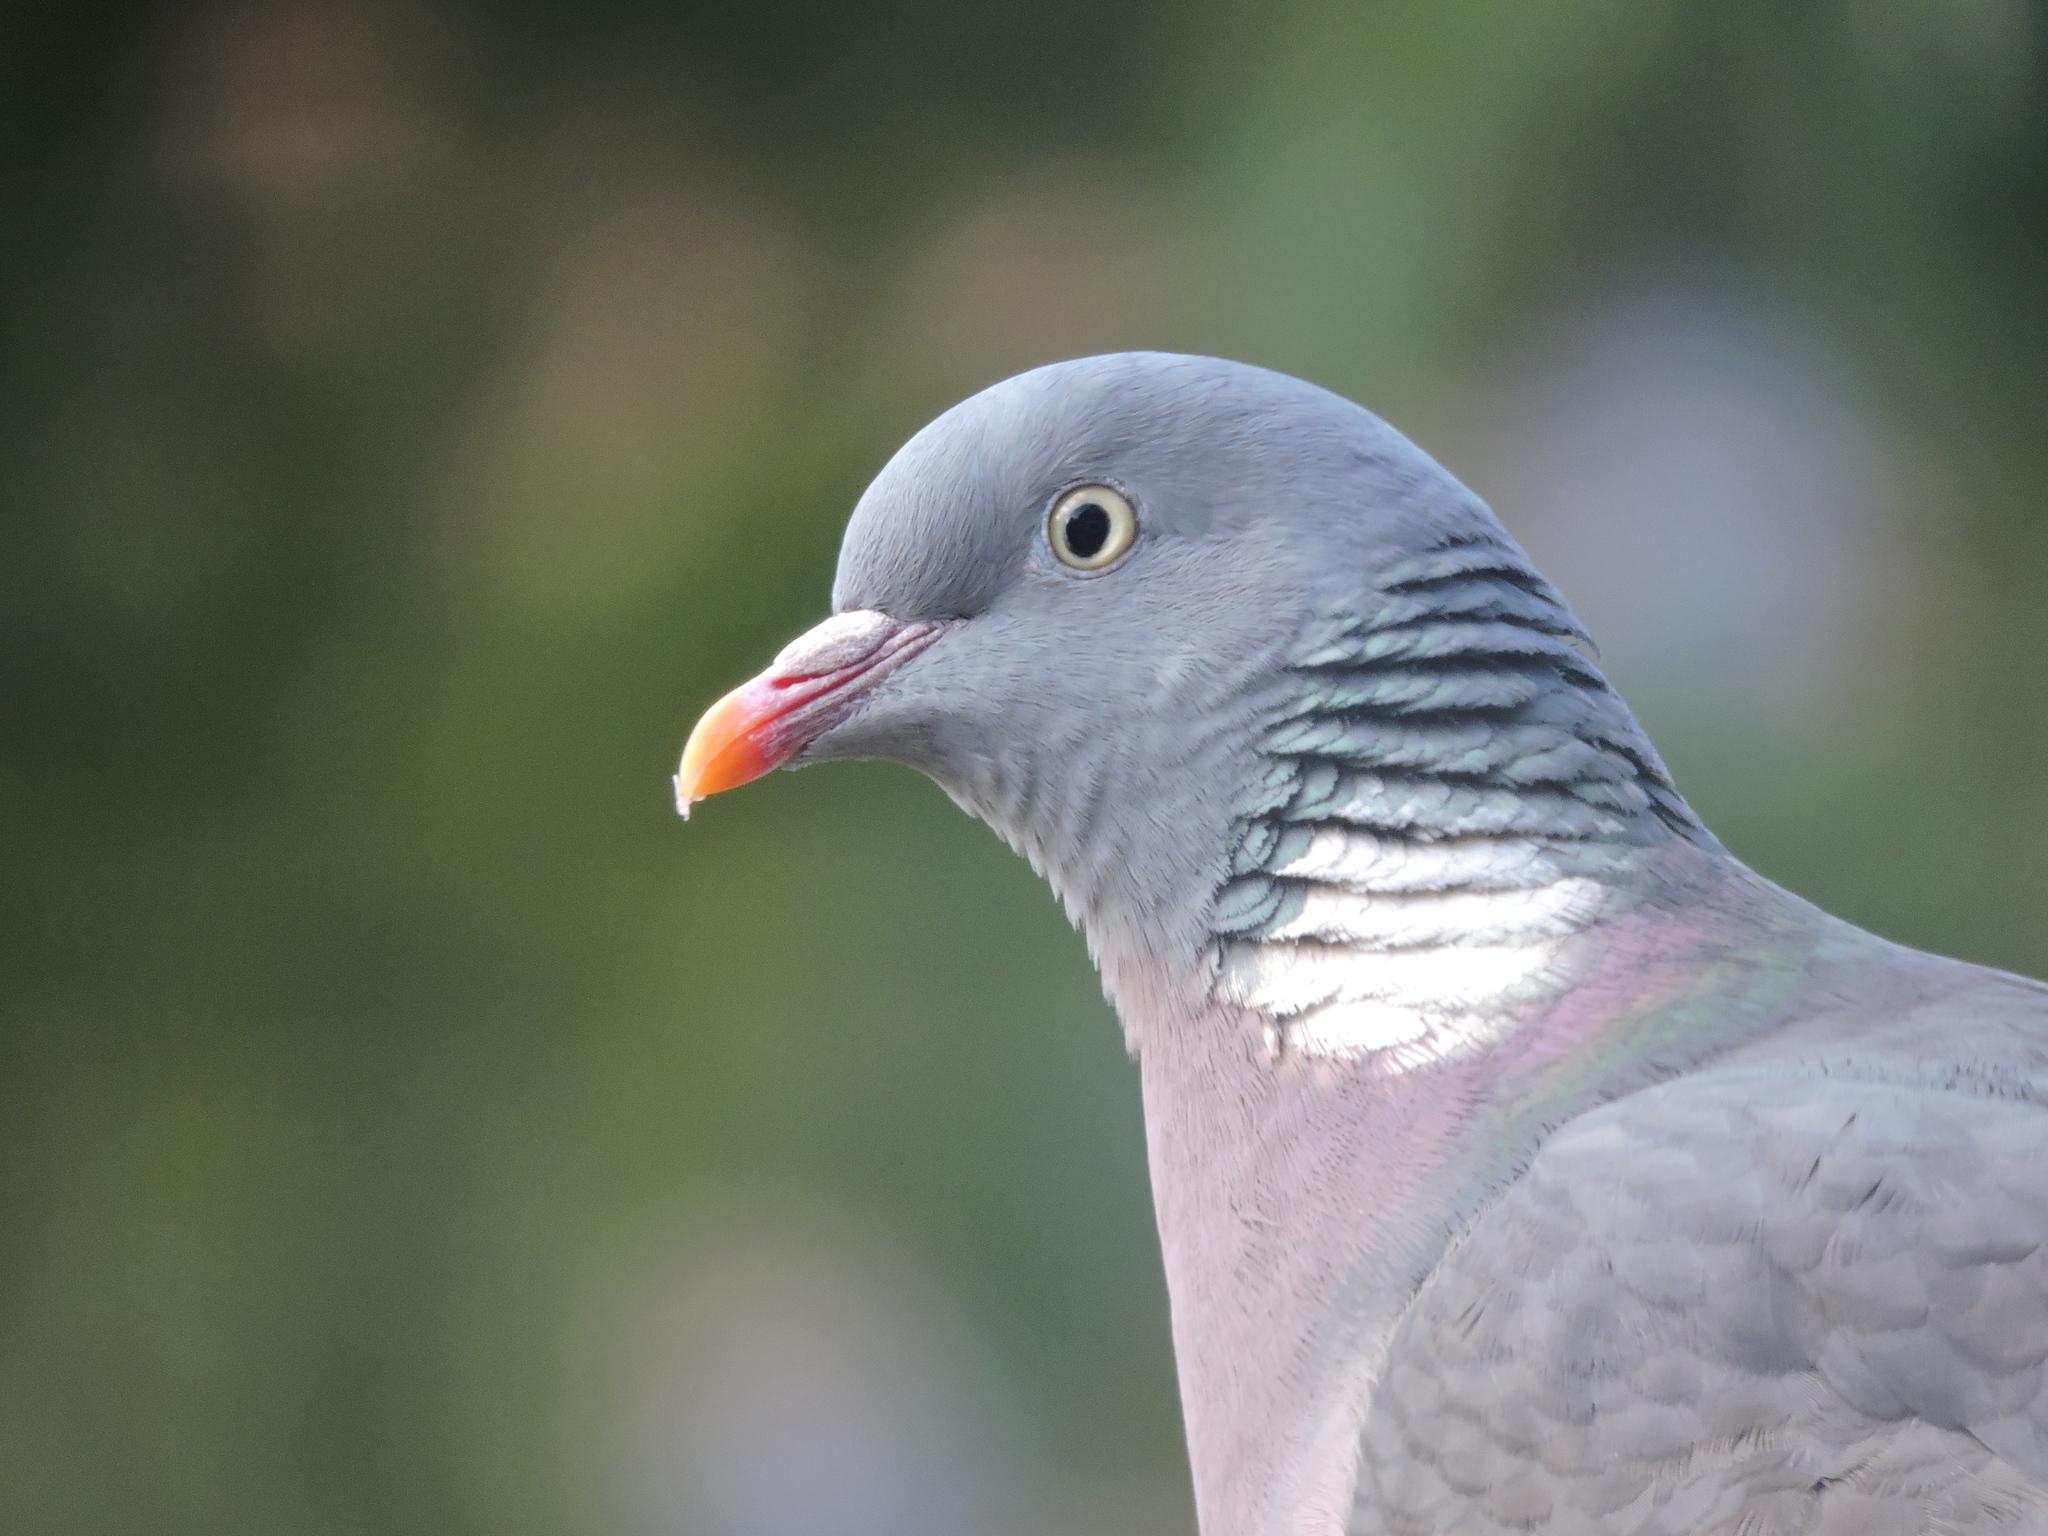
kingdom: Animalia
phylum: Chordata
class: Aves
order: Columbiformes
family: Columbidae
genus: Columba
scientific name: Columba palumbus
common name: Common wood pigeon
